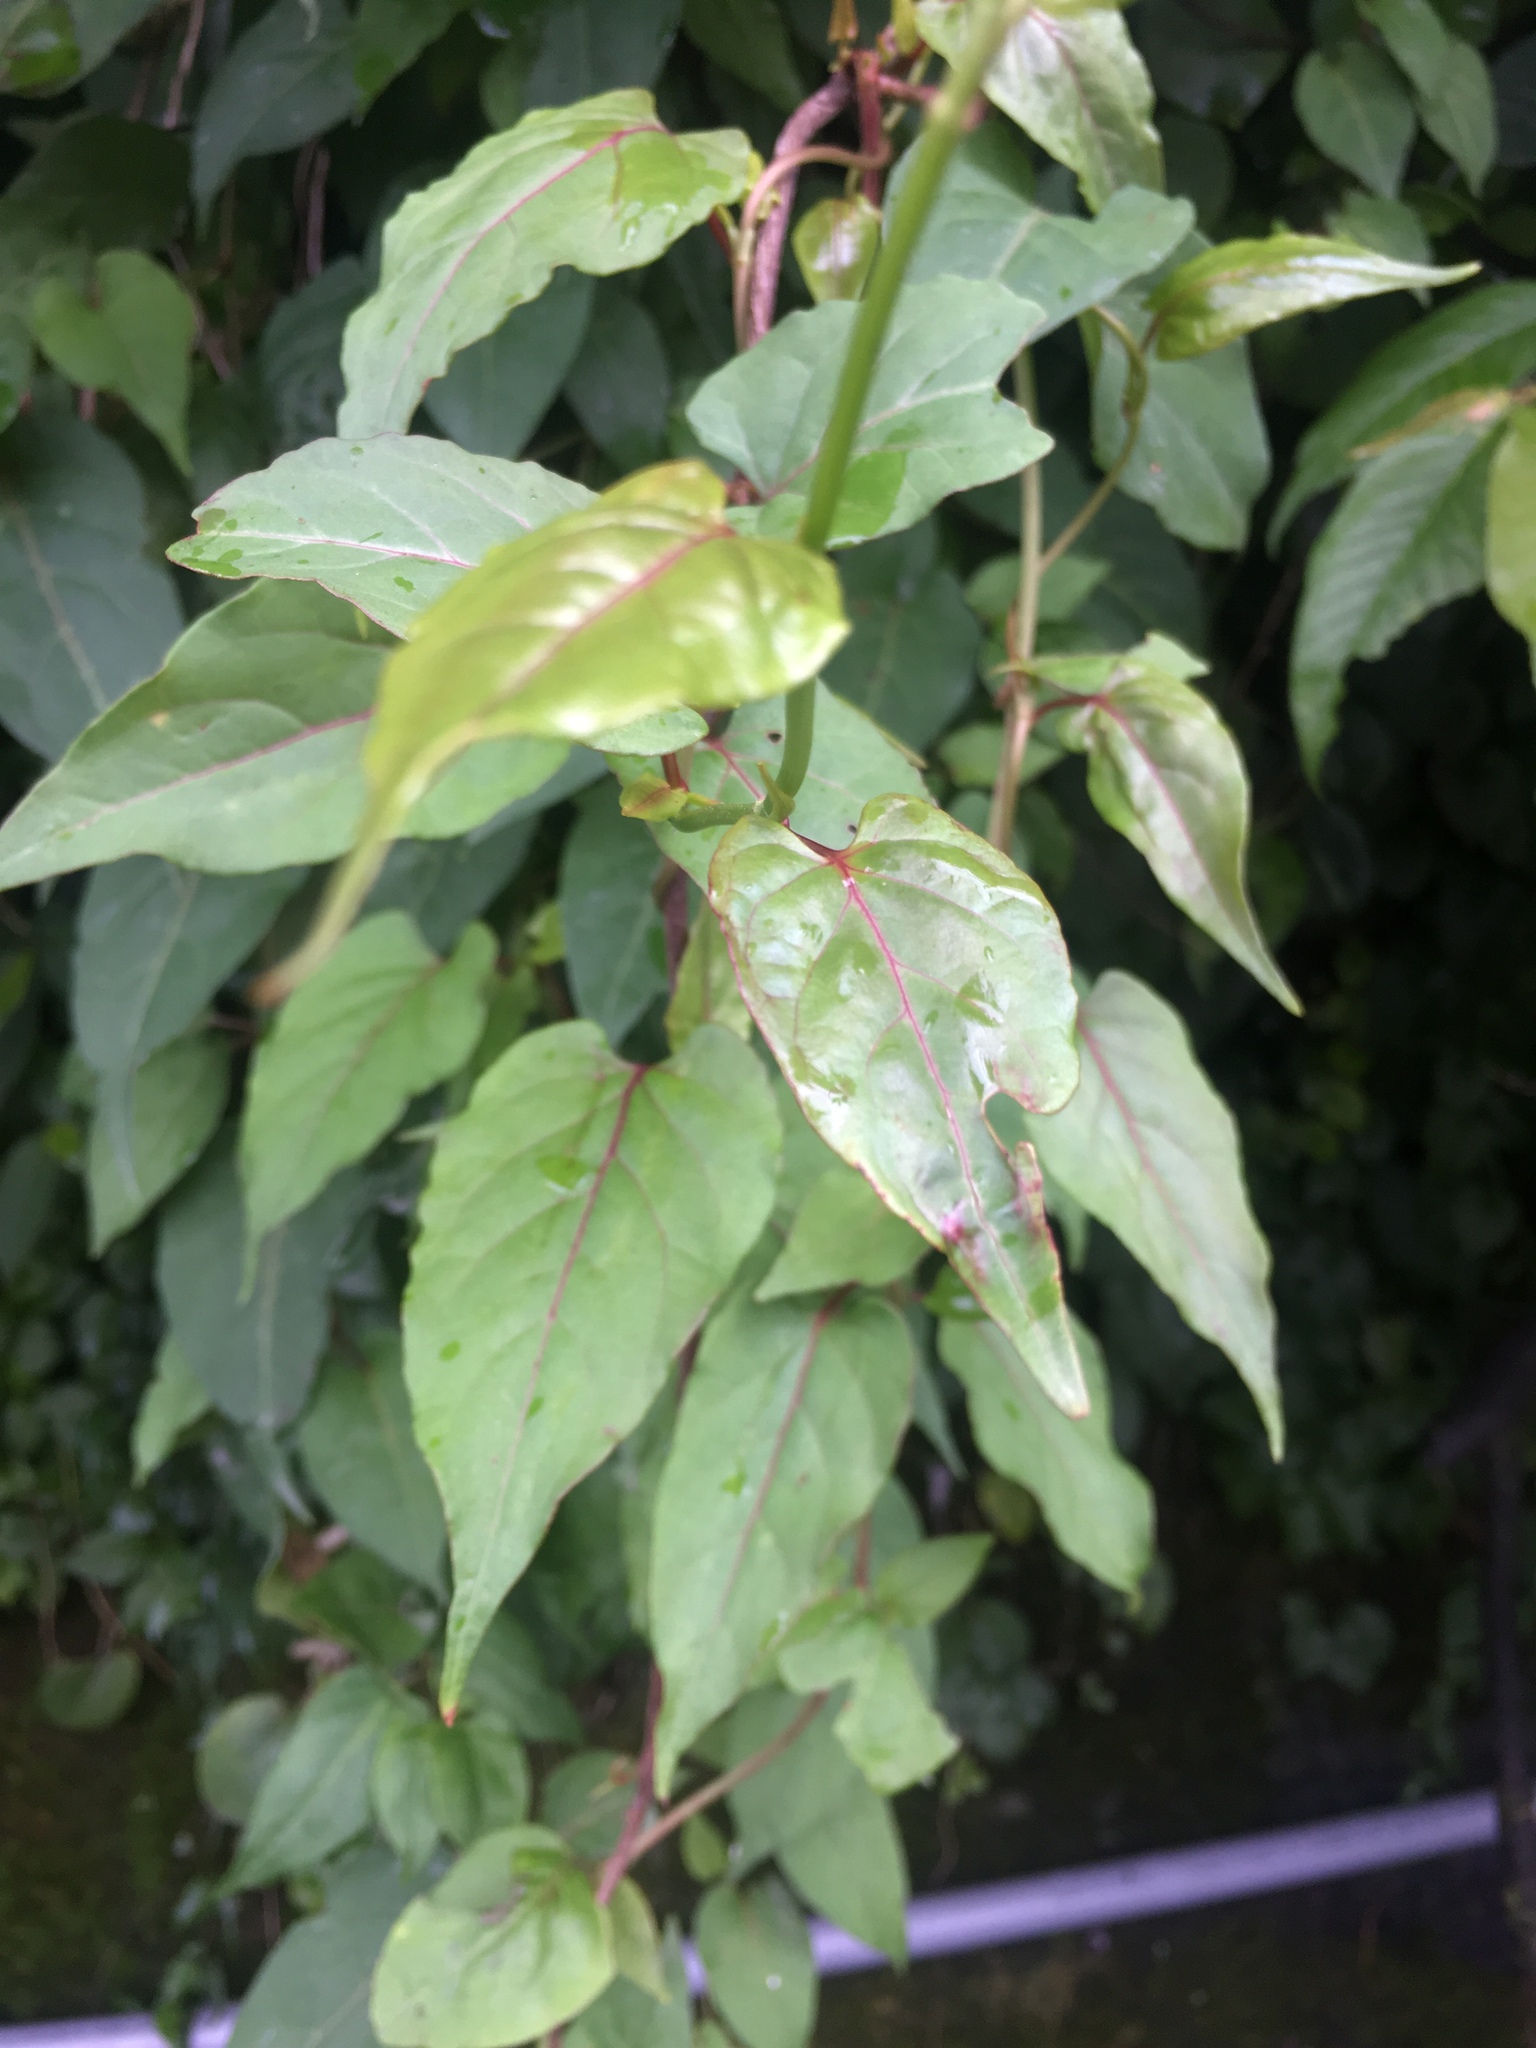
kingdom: Plantae
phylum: Tracheophyta
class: Magnoliopsida
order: Caryophyllales
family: Polygonaceae
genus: Reynoutria
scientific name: Reynoutria multiflora
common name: Chinese fleeceflower
